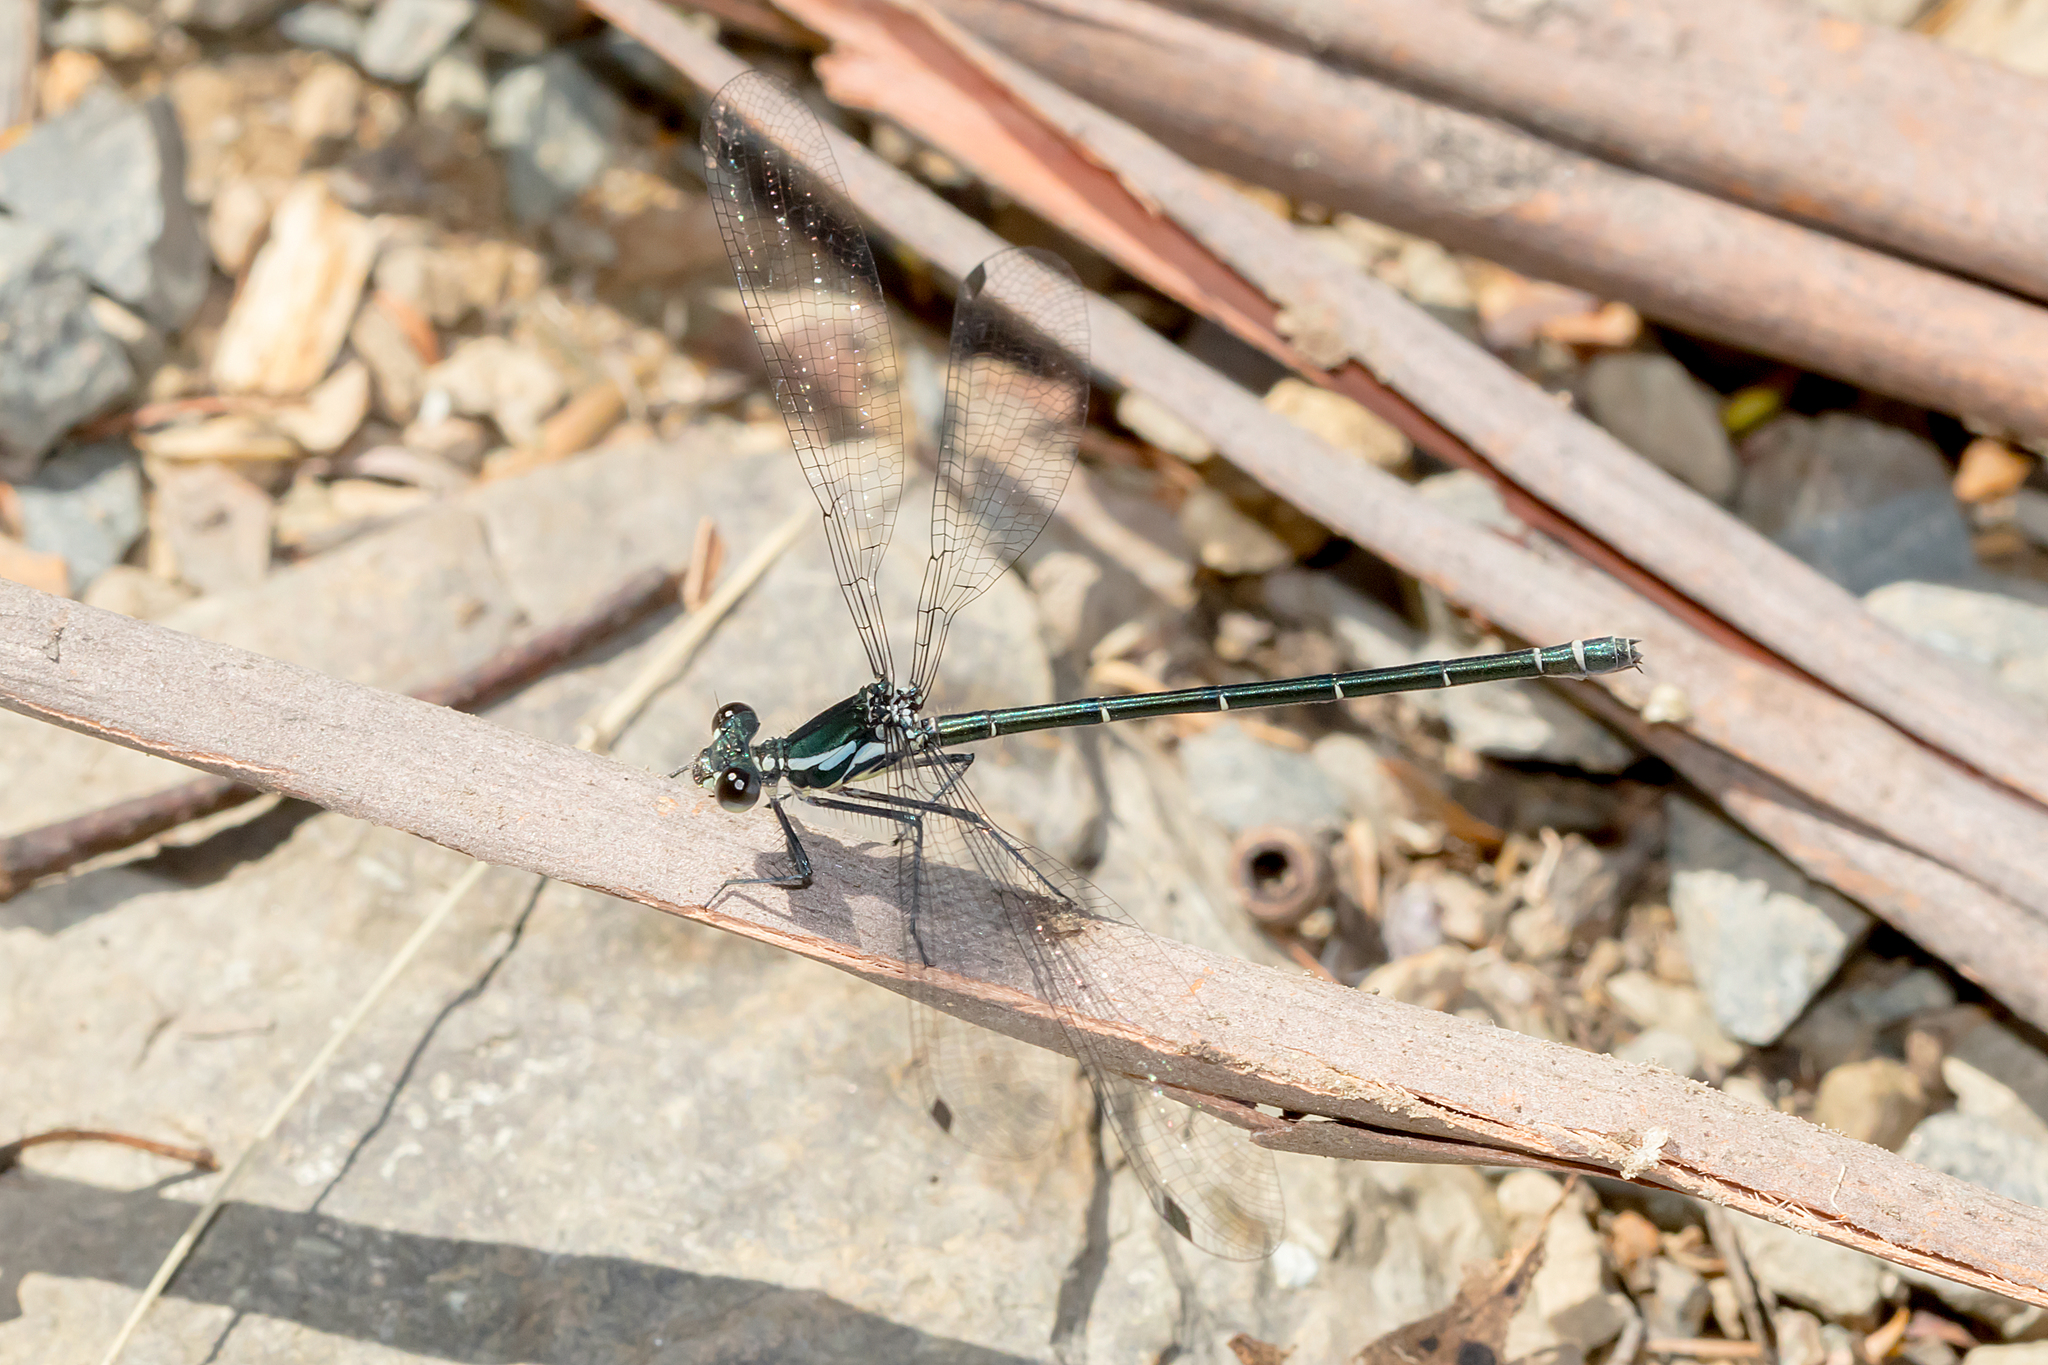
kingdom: Animalia
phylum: Arthropoda
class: Insecta
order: Odonata
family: Argiolestidae
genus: Austroargiolestes
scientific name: Austroargiolestes icteromelas
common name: Common flatwing
